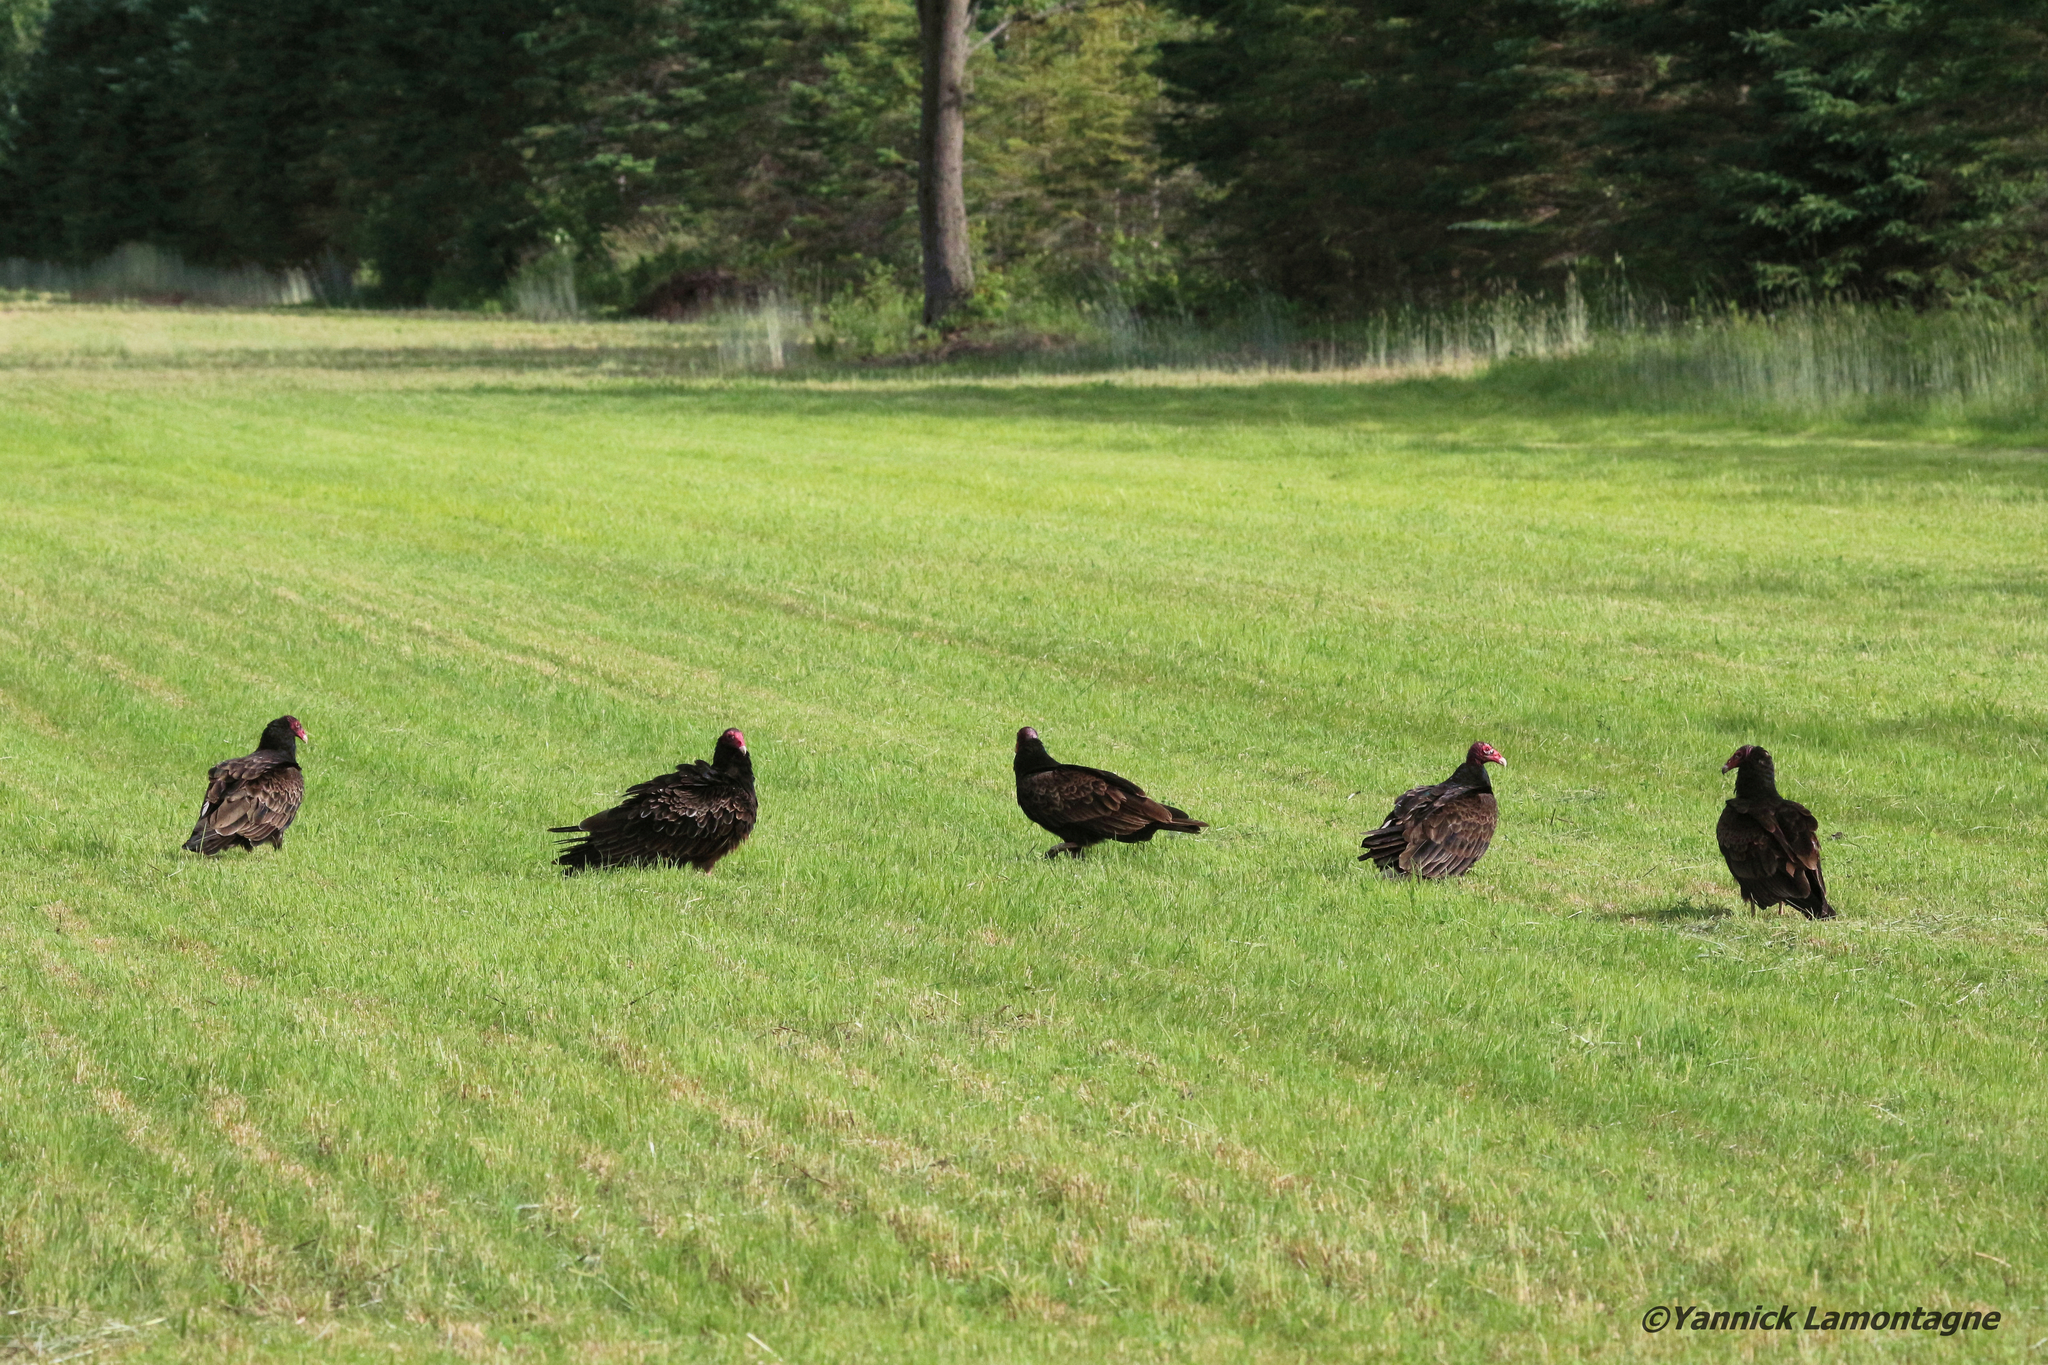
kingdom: Animalia
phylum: Chordata
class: Aves
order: Accipitriformes
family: Cathartidae
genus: Cathartes
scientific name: Cathartes aura
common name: Turkey vulture
